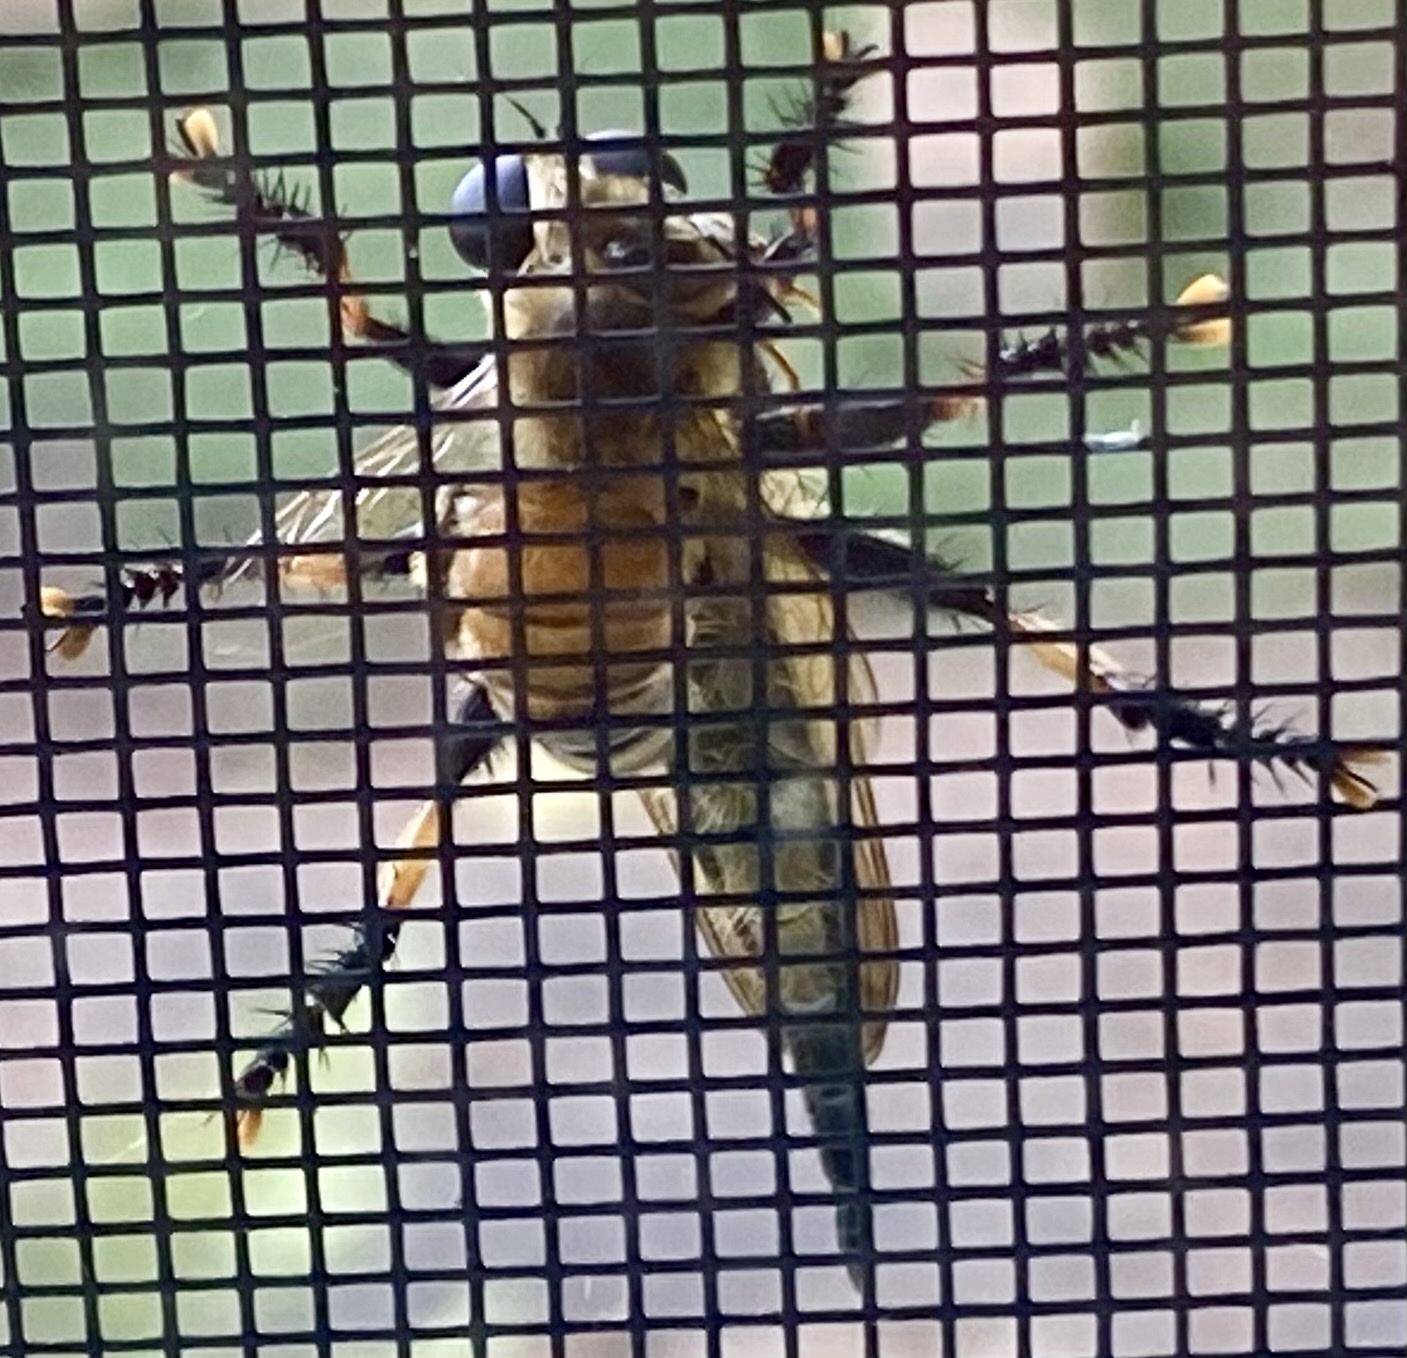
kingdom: Animalia
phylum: Arthropoda
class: Insecta
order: Diptera
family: Asilidae
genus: Promachus
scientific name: Promachus rufipes
